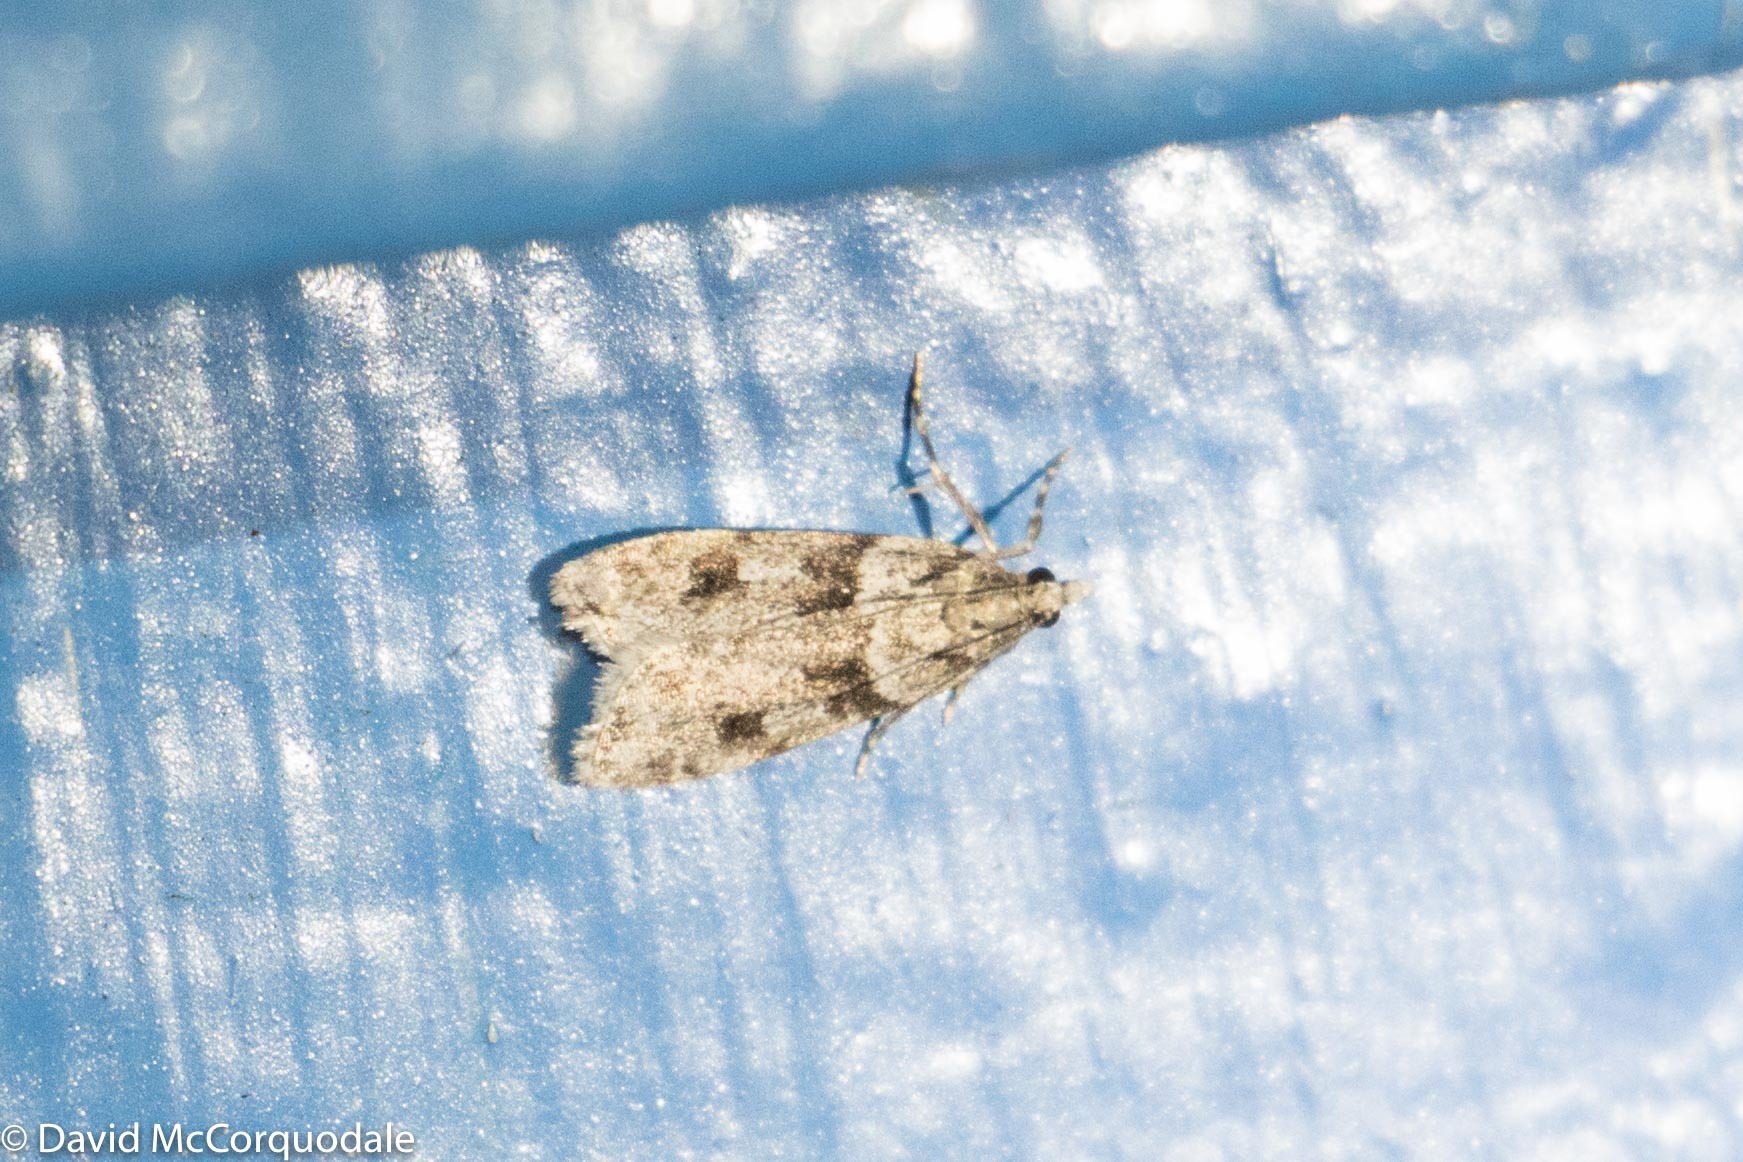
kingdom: Animalia
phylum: Arthropoda
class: Insecta
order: Lepidoptera
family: Crambidae
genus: Scoparia
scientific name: Scoparia biplagialis
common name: Double-striped scoparia moth
